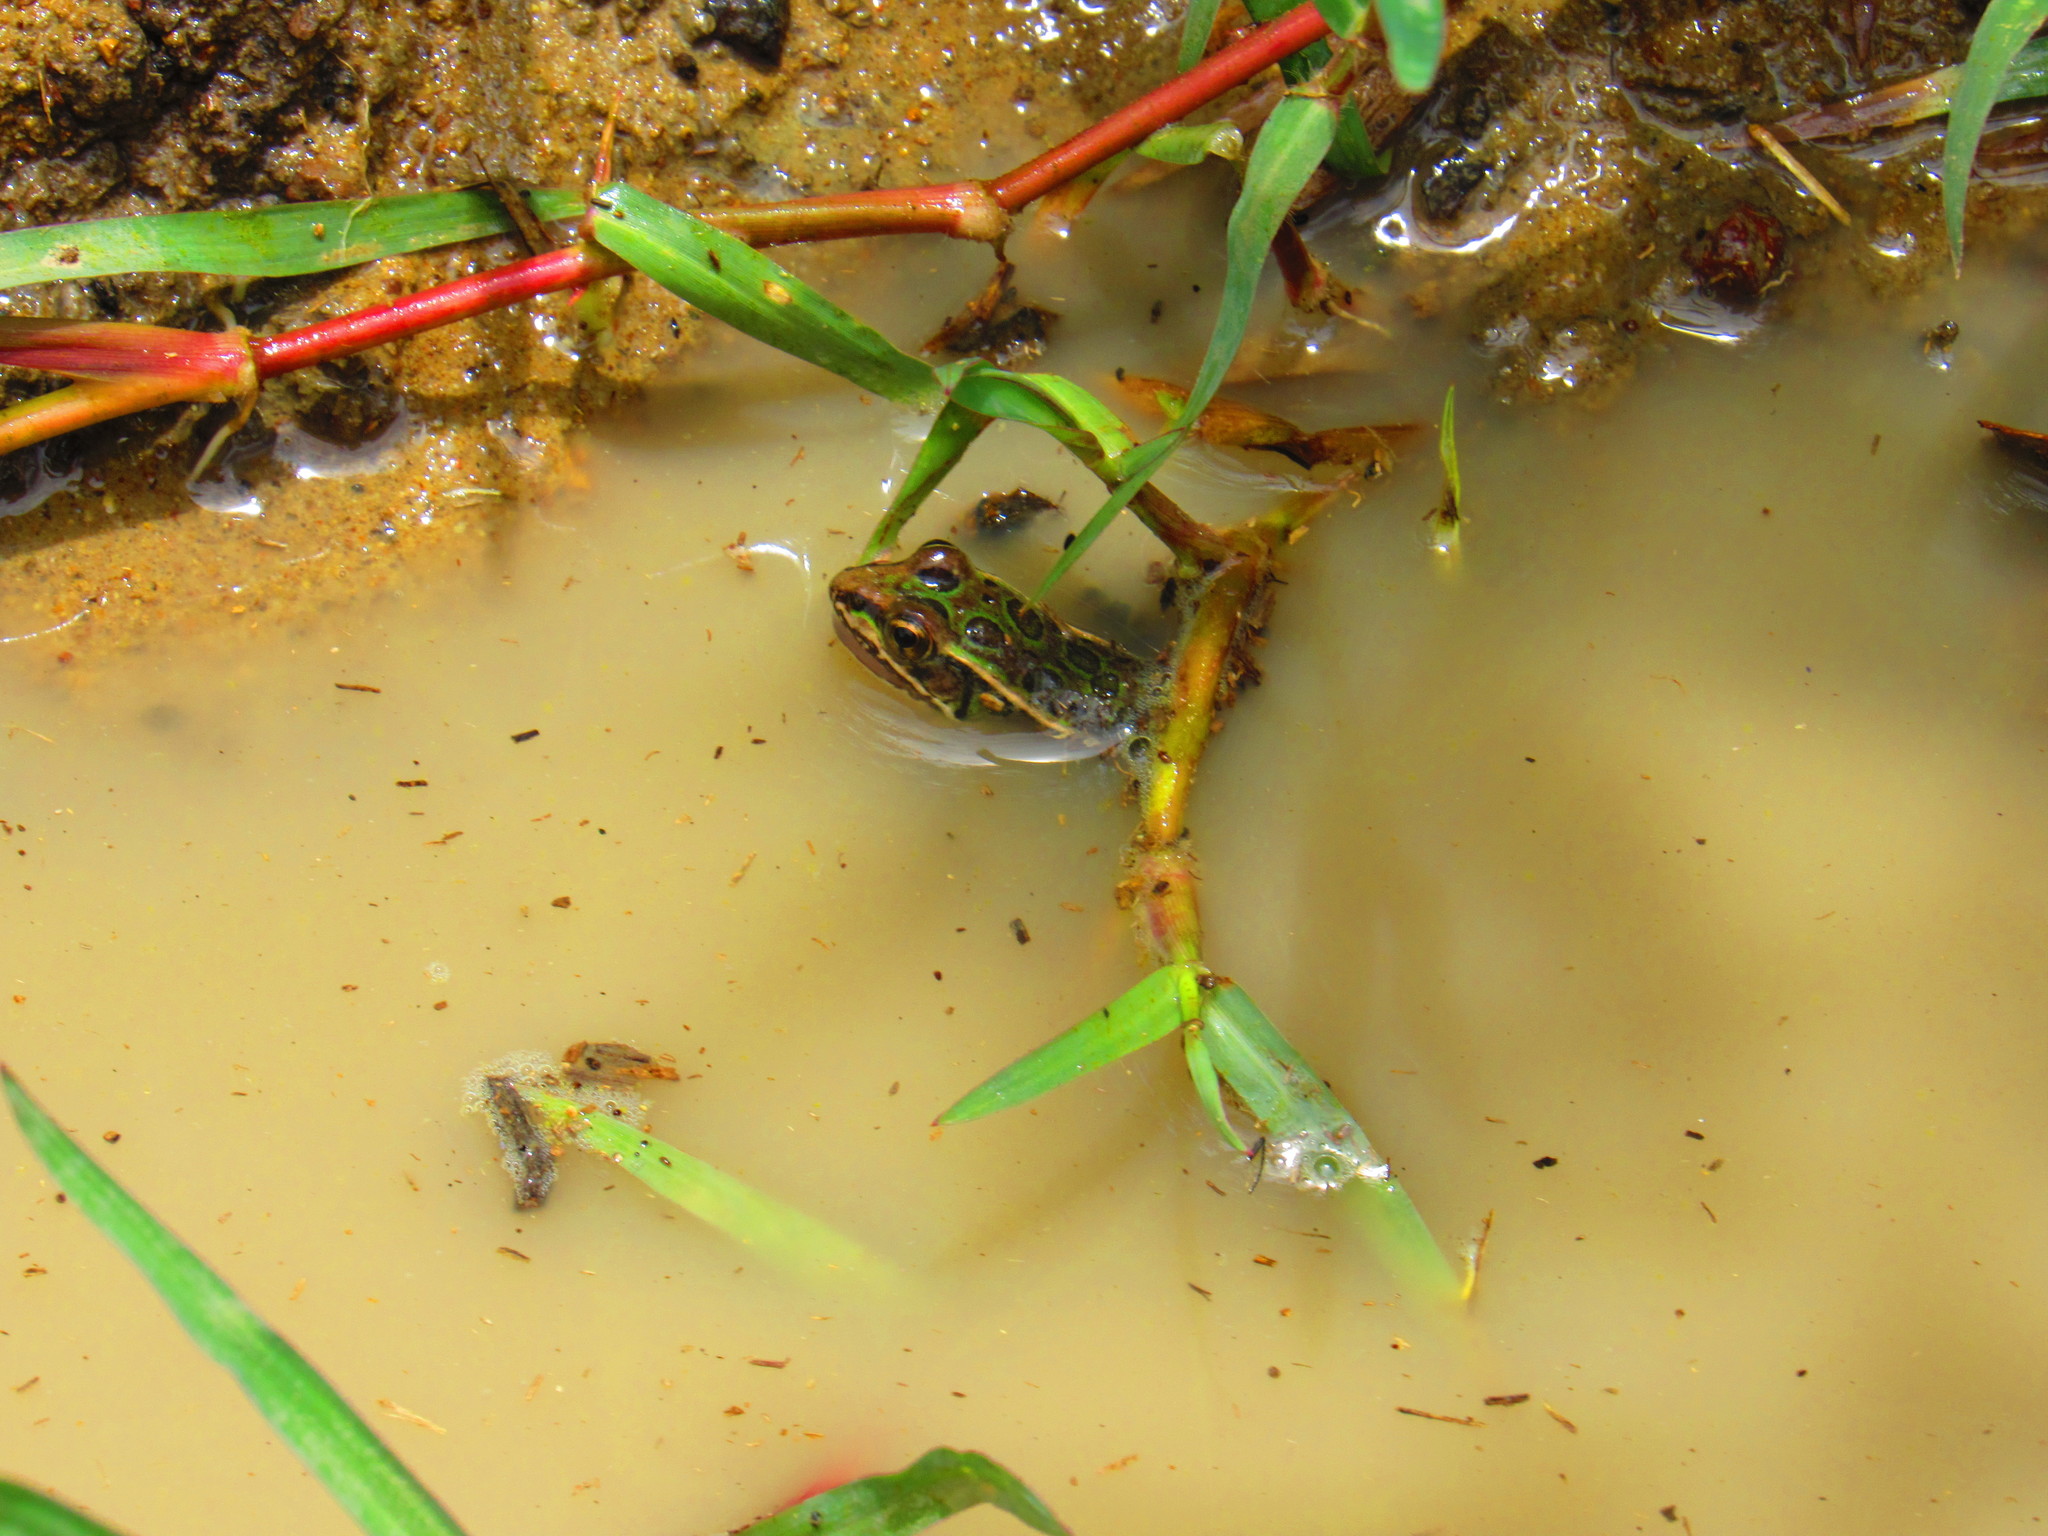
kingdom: Animalia
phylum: Chordata
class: Amphibia
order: Anura
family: Ranidae
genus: Lithobates
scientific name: Lithobates neovolcanicus
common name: Transverse volcanic leopard frog
